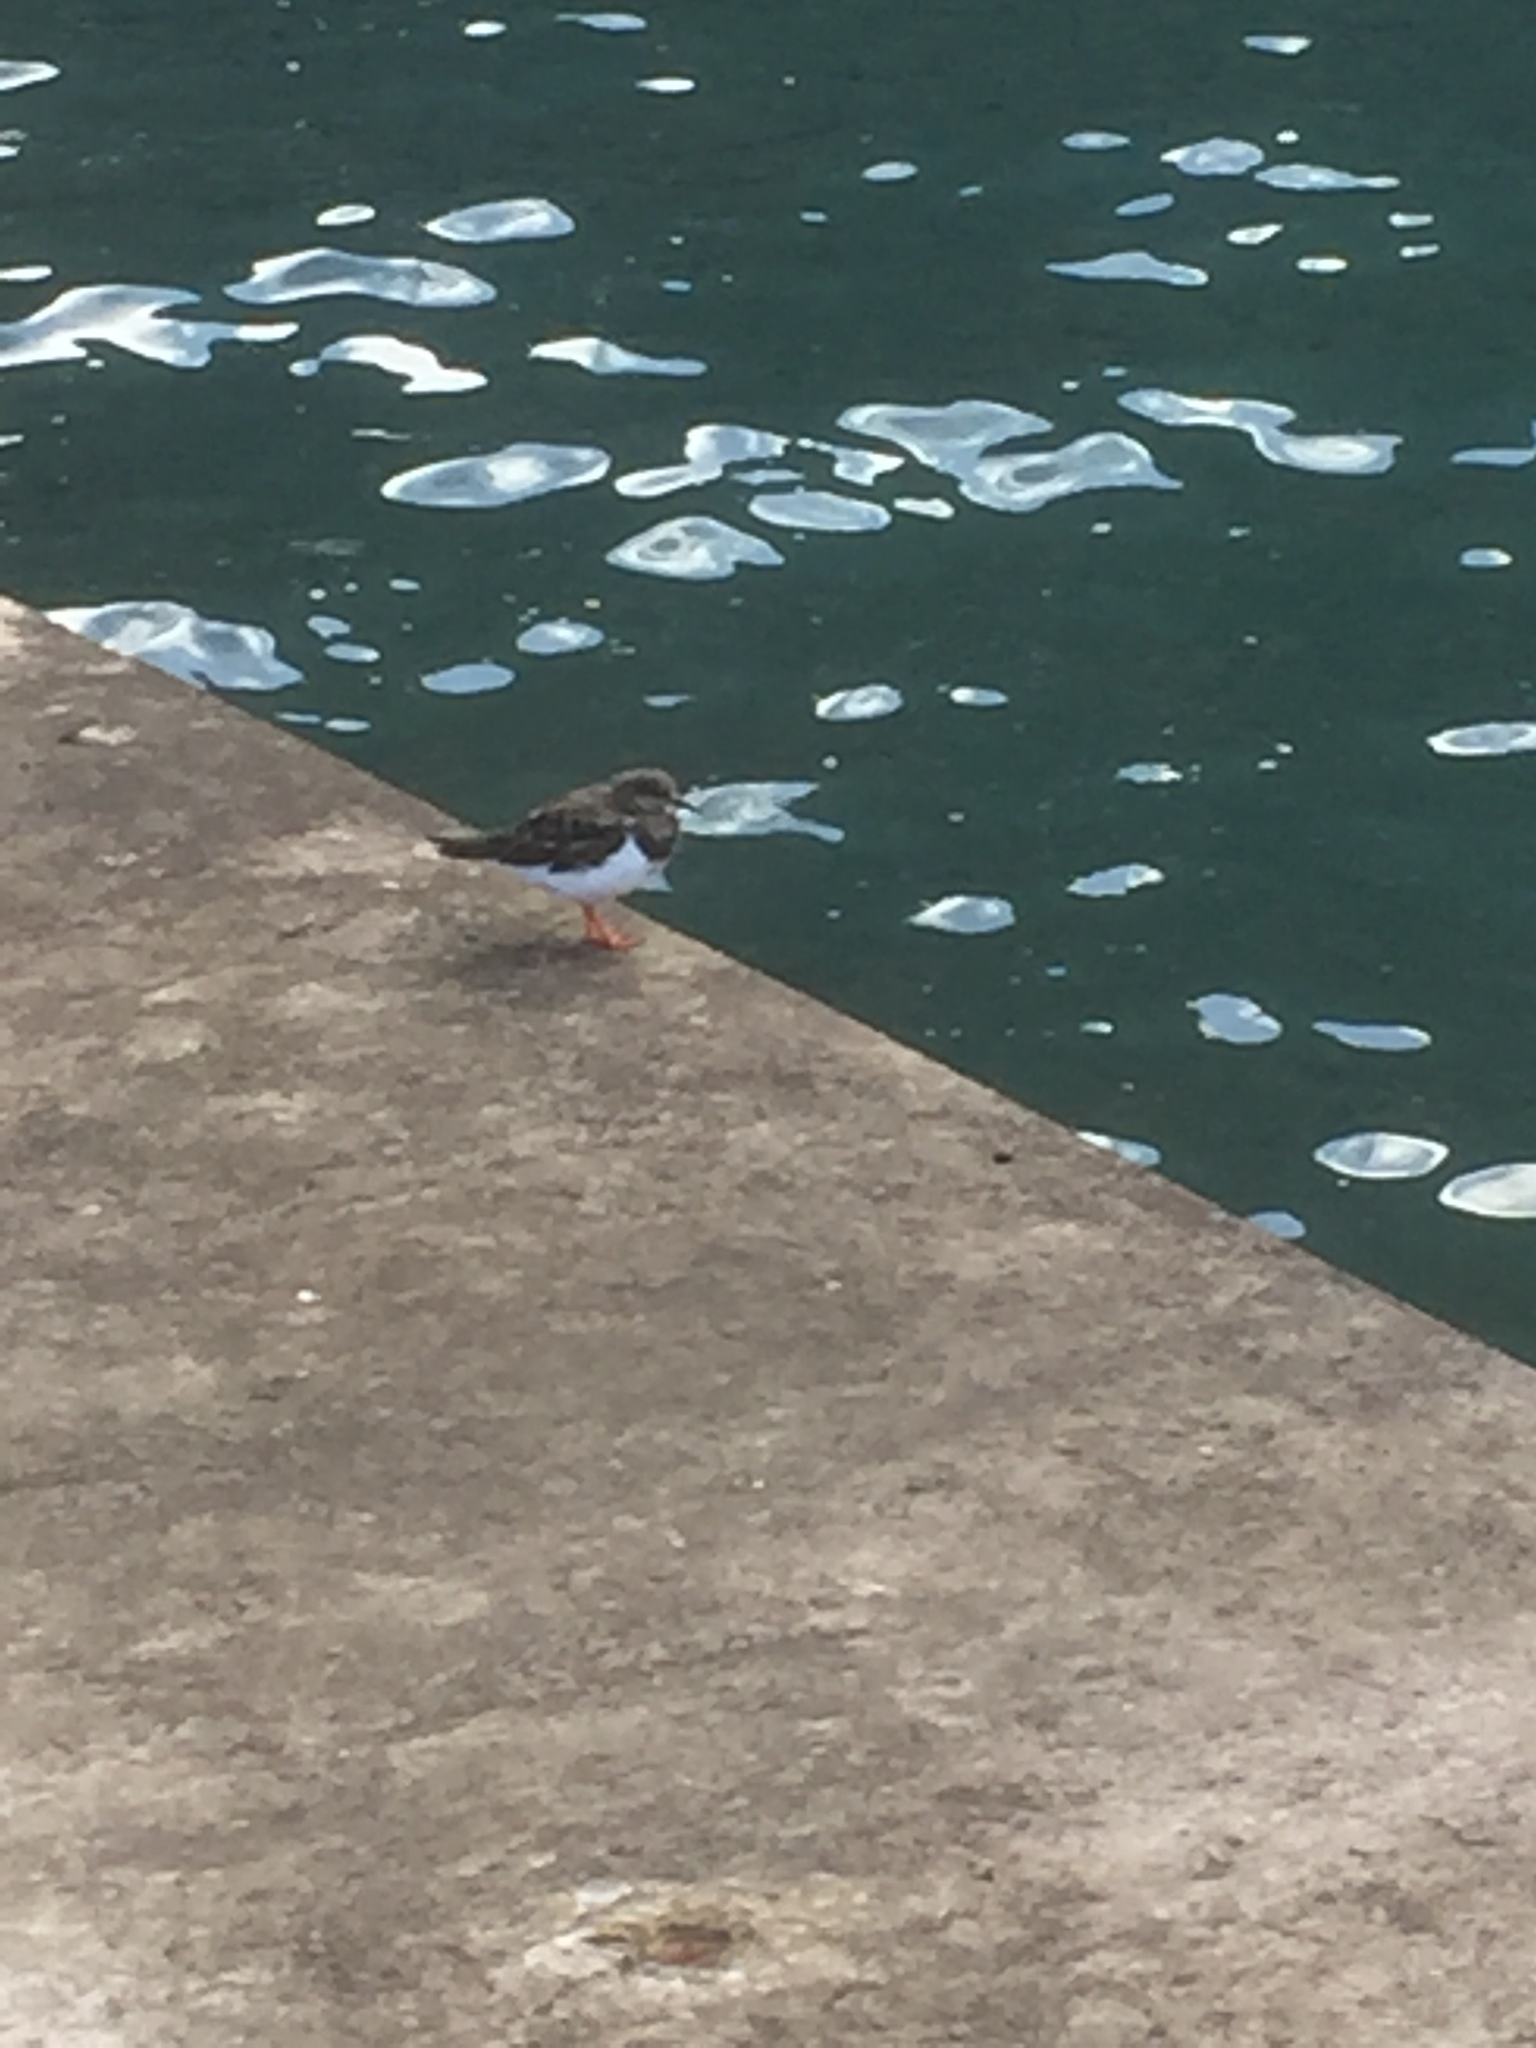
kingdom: Animalia
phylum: Chordata
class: Aves
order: Charadriiformes
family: Scolopacidae
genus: Arenaria
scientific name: Arenaria interpres
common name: Ruddy turnstone
